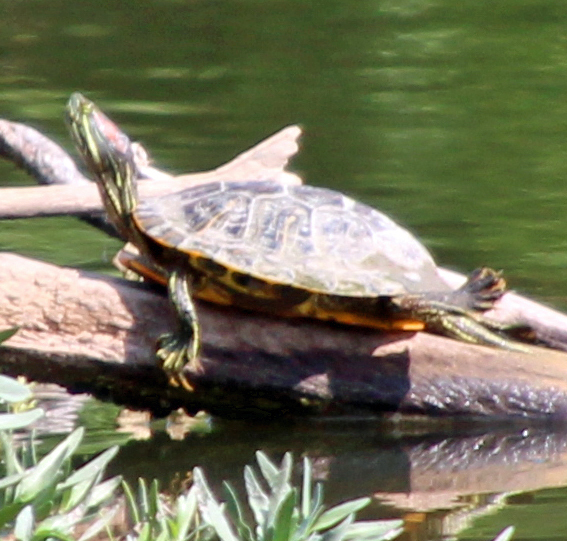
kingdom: Animalia
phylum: Chordata
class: Testudines
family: Emydidae
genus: Trachemys
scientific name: Trachemys scripta
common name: Slider
